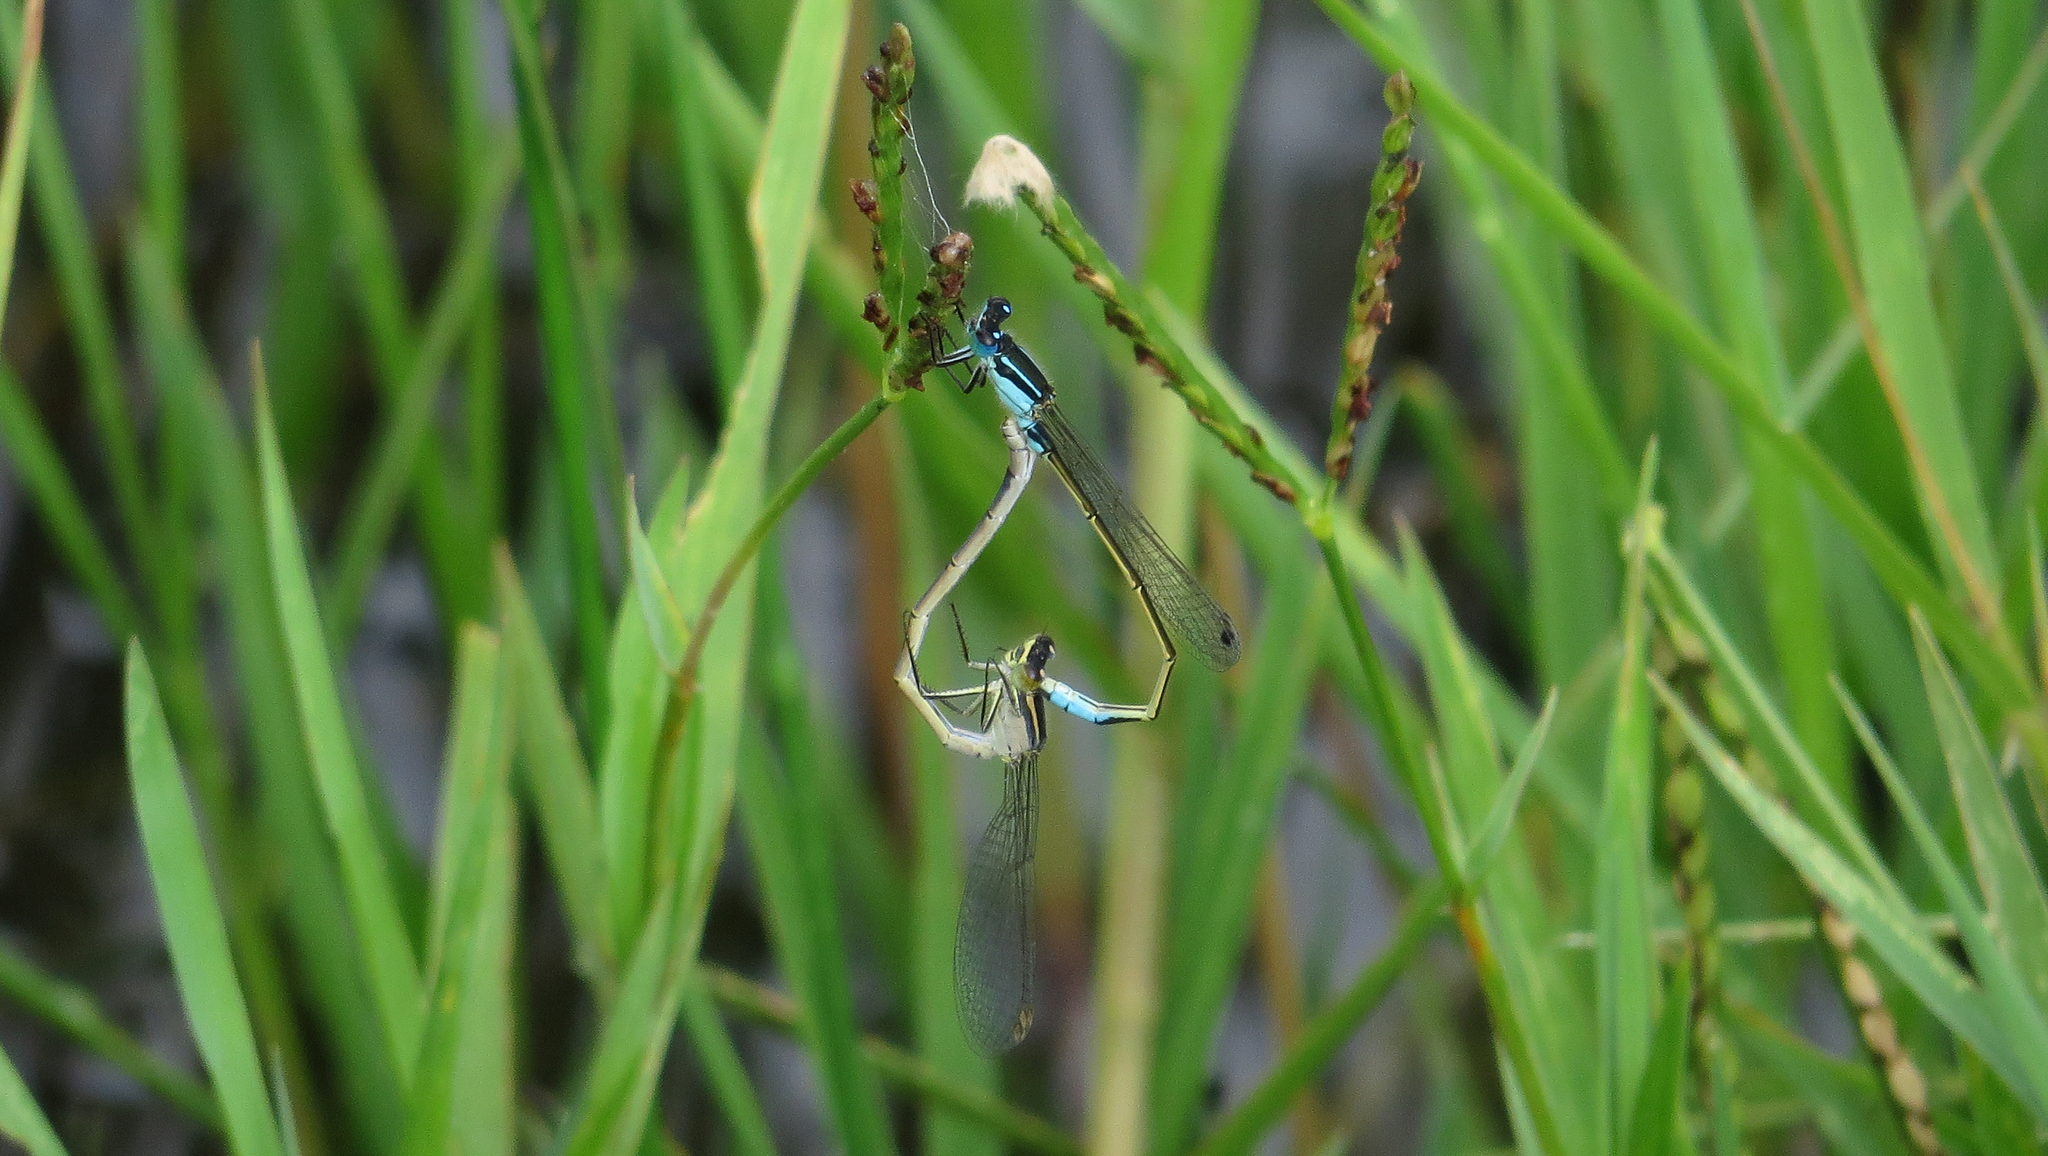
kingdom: Animalia
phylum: Arthropoda
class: Insecta
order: Odonata
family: Coenagrionidae
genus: Ischnura
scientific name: Ischnura heterosticta
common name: Common bluetail
